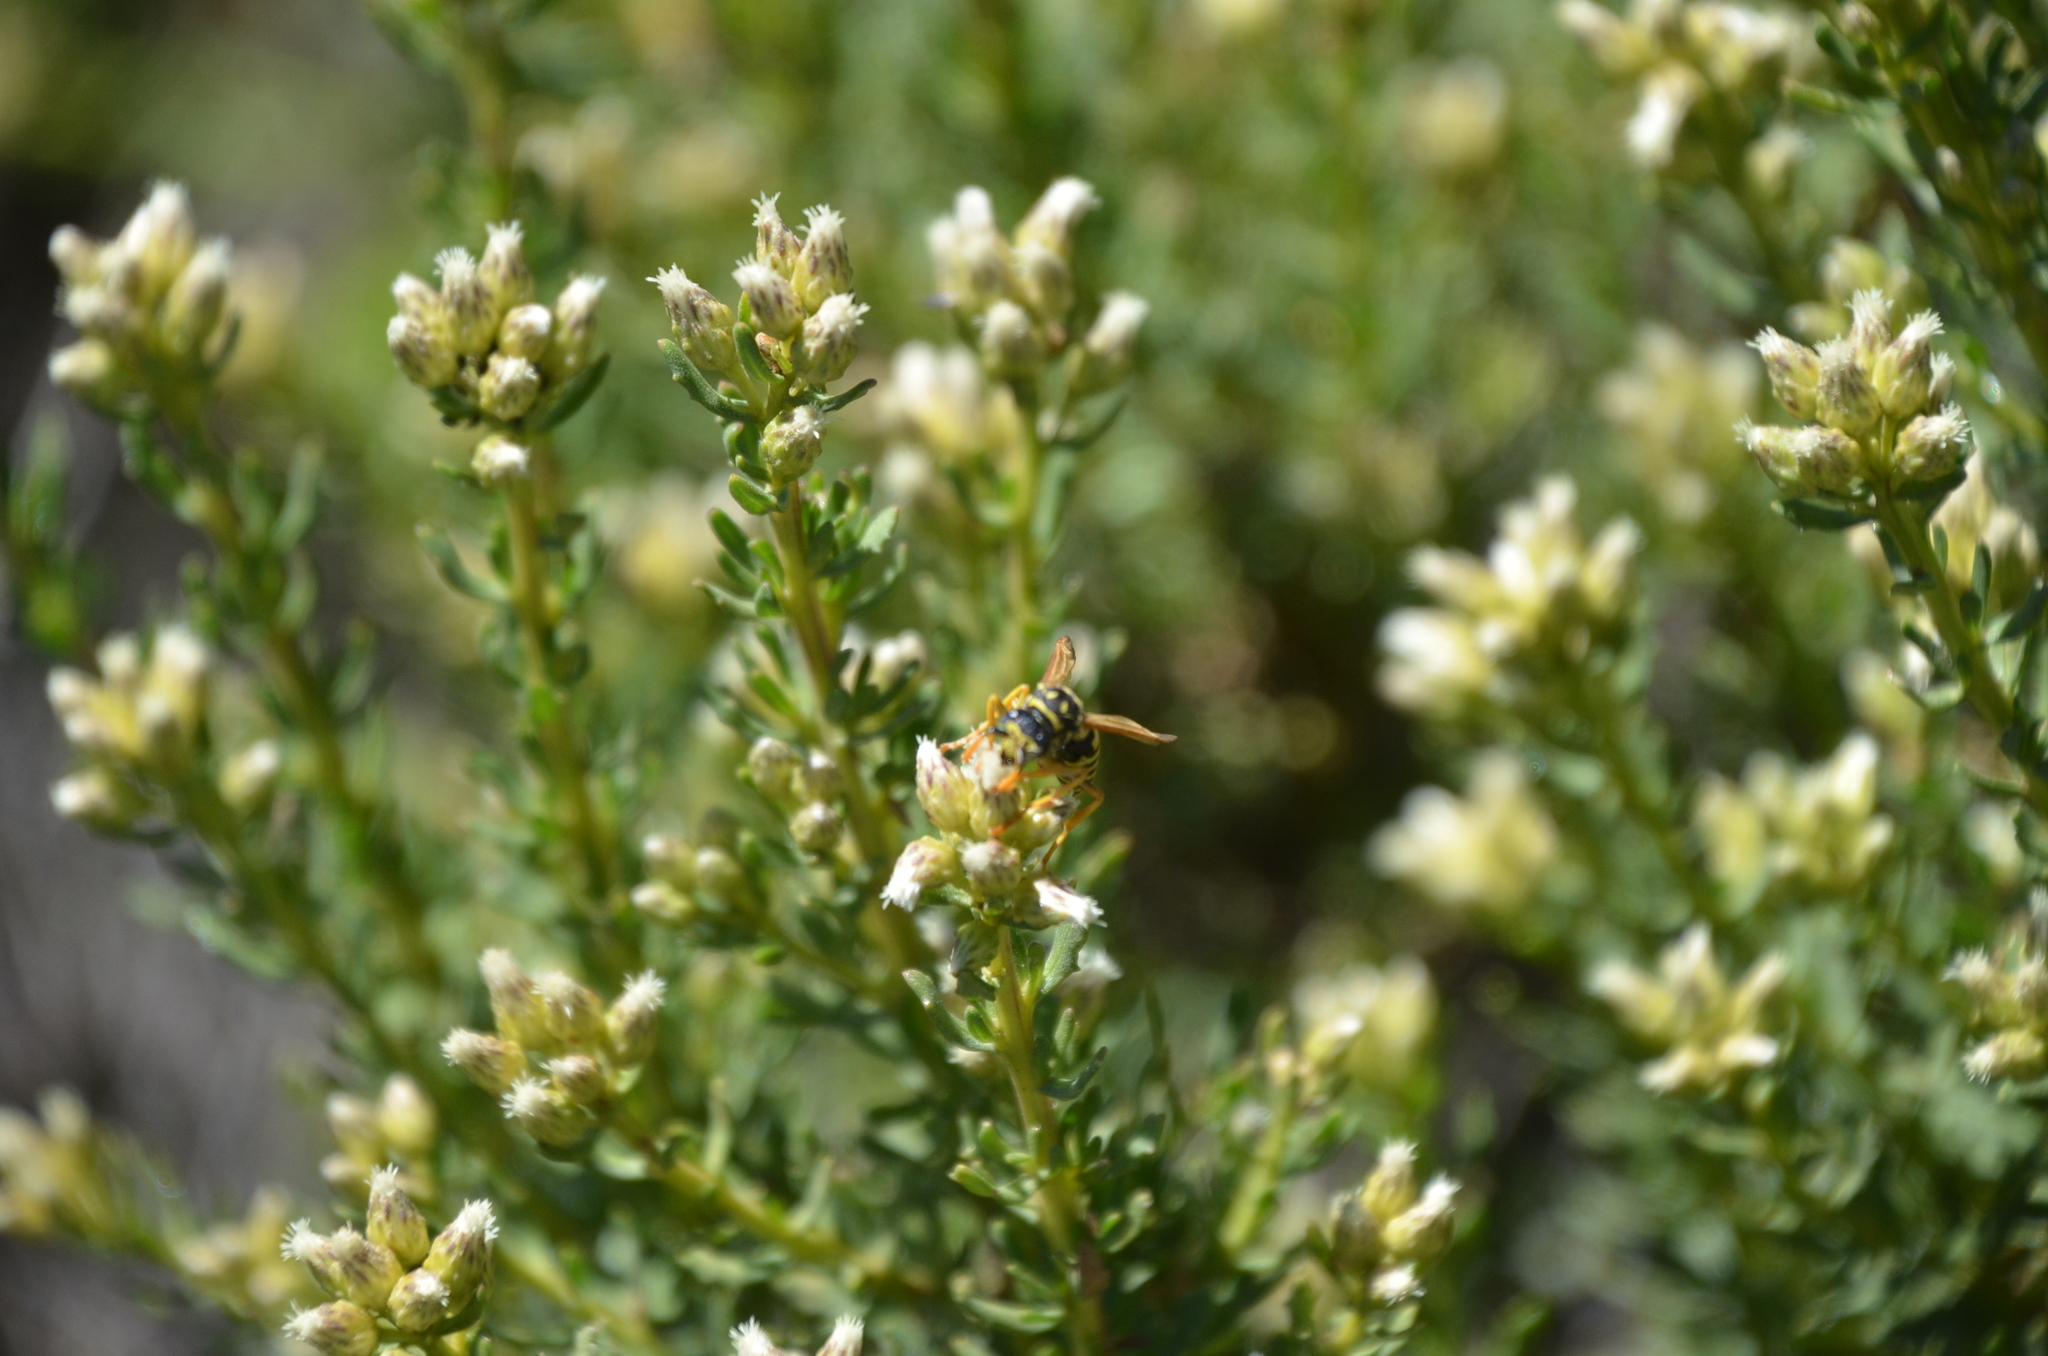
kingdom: Animalia
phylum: Arthropoda
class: Insecta
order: Hymenoptera
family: Eumenidae
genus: Polistes
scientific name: Polistes dominula
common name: Paper wasp
